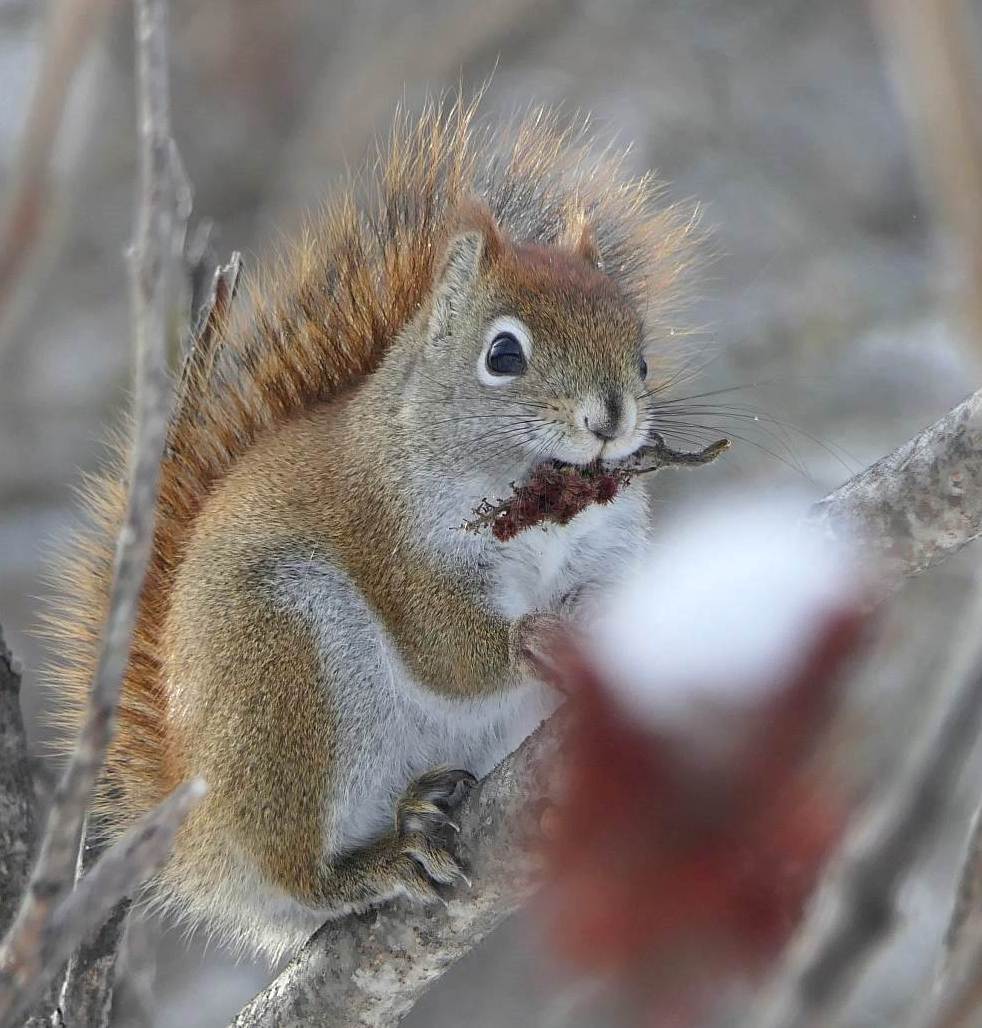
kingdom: Animalia
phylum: Chordata
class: Mammalia
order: Rodentia
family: Sciuridae
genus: Tamiasciurus
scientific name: Tamiasciurus hudsonicus
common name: Red squirrel
